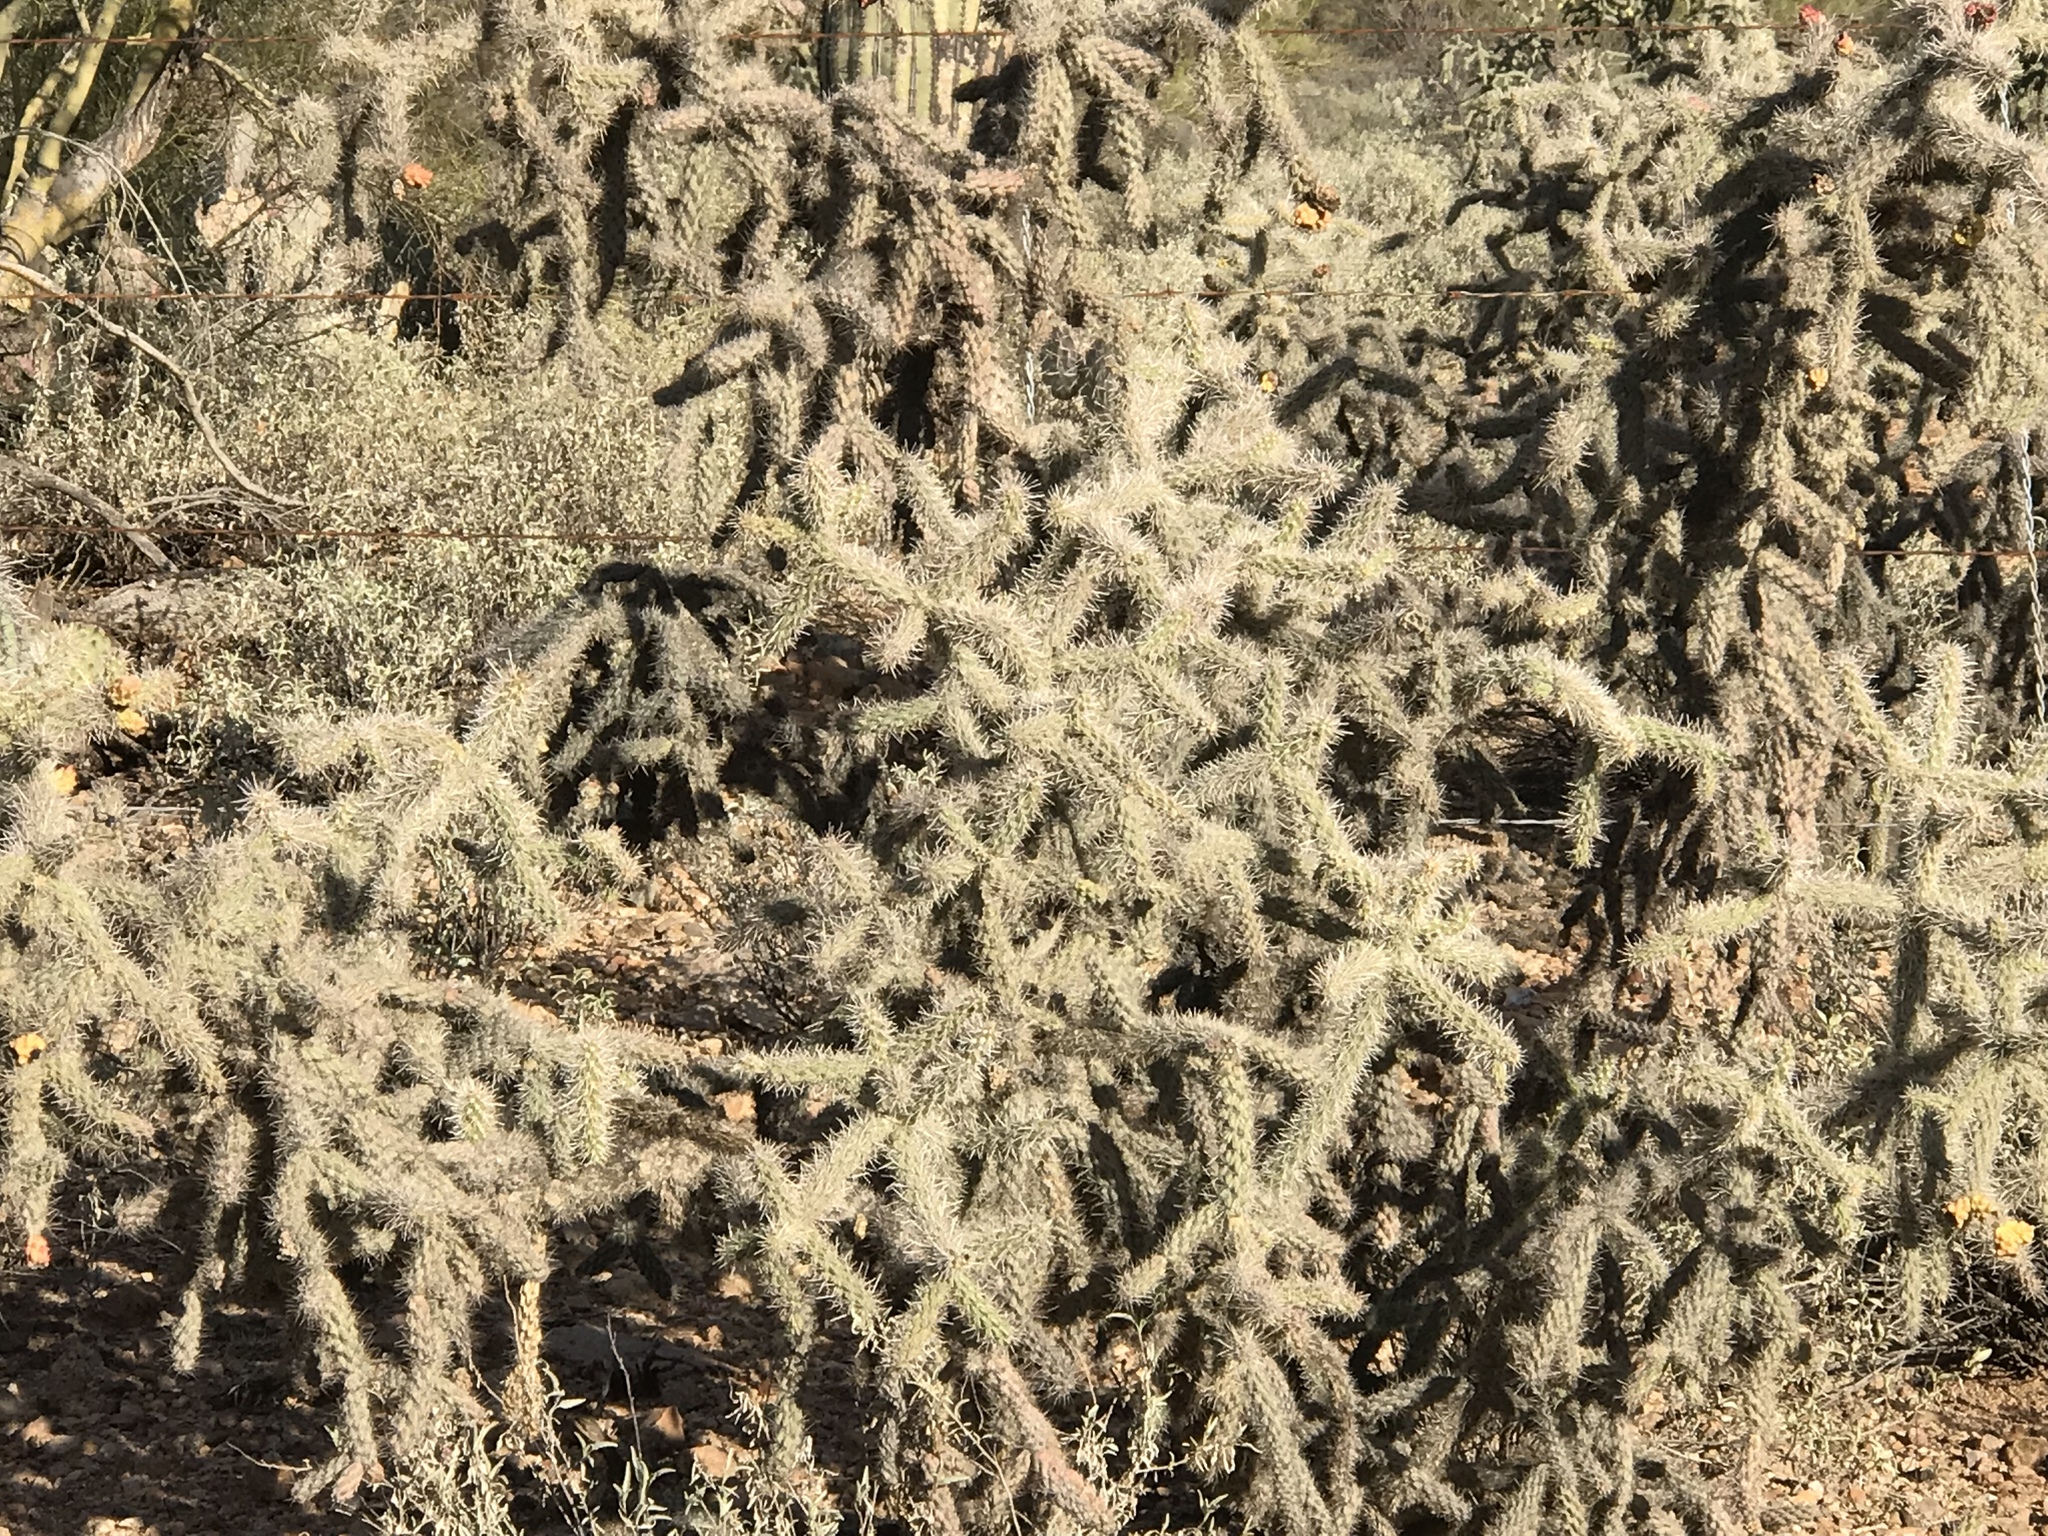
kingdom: Plantae
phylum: Tracheophyta
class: Magnoliopsida
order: Caryophyllales
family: Cactaceae
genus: Cylindropuntia
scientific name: Cylindropuntia imbricata
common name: Candelabrum cactus
